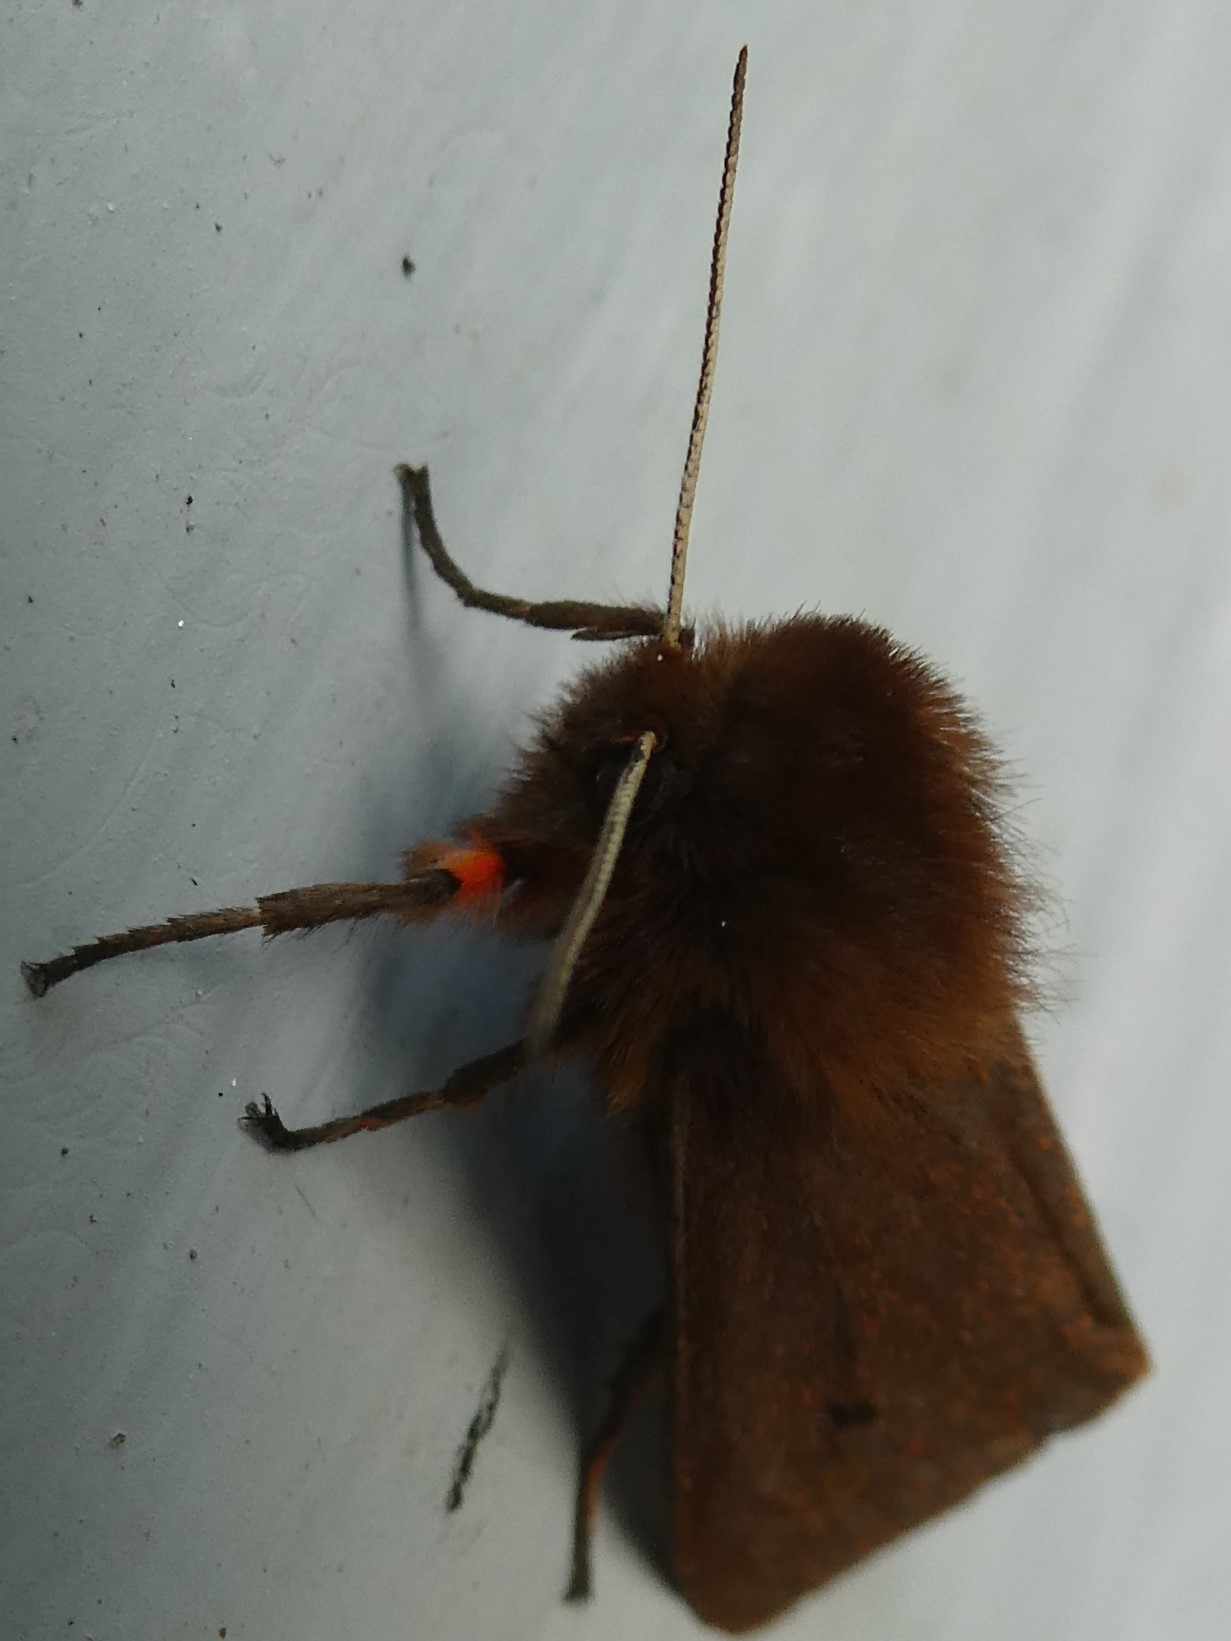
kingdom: Animalia
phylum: Arthropoda
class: Insecta
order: Lepidoptera
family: Erebidae
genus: Phragmatobia
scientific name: Phragmatobia fuliginosa
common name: Ruby tiger
